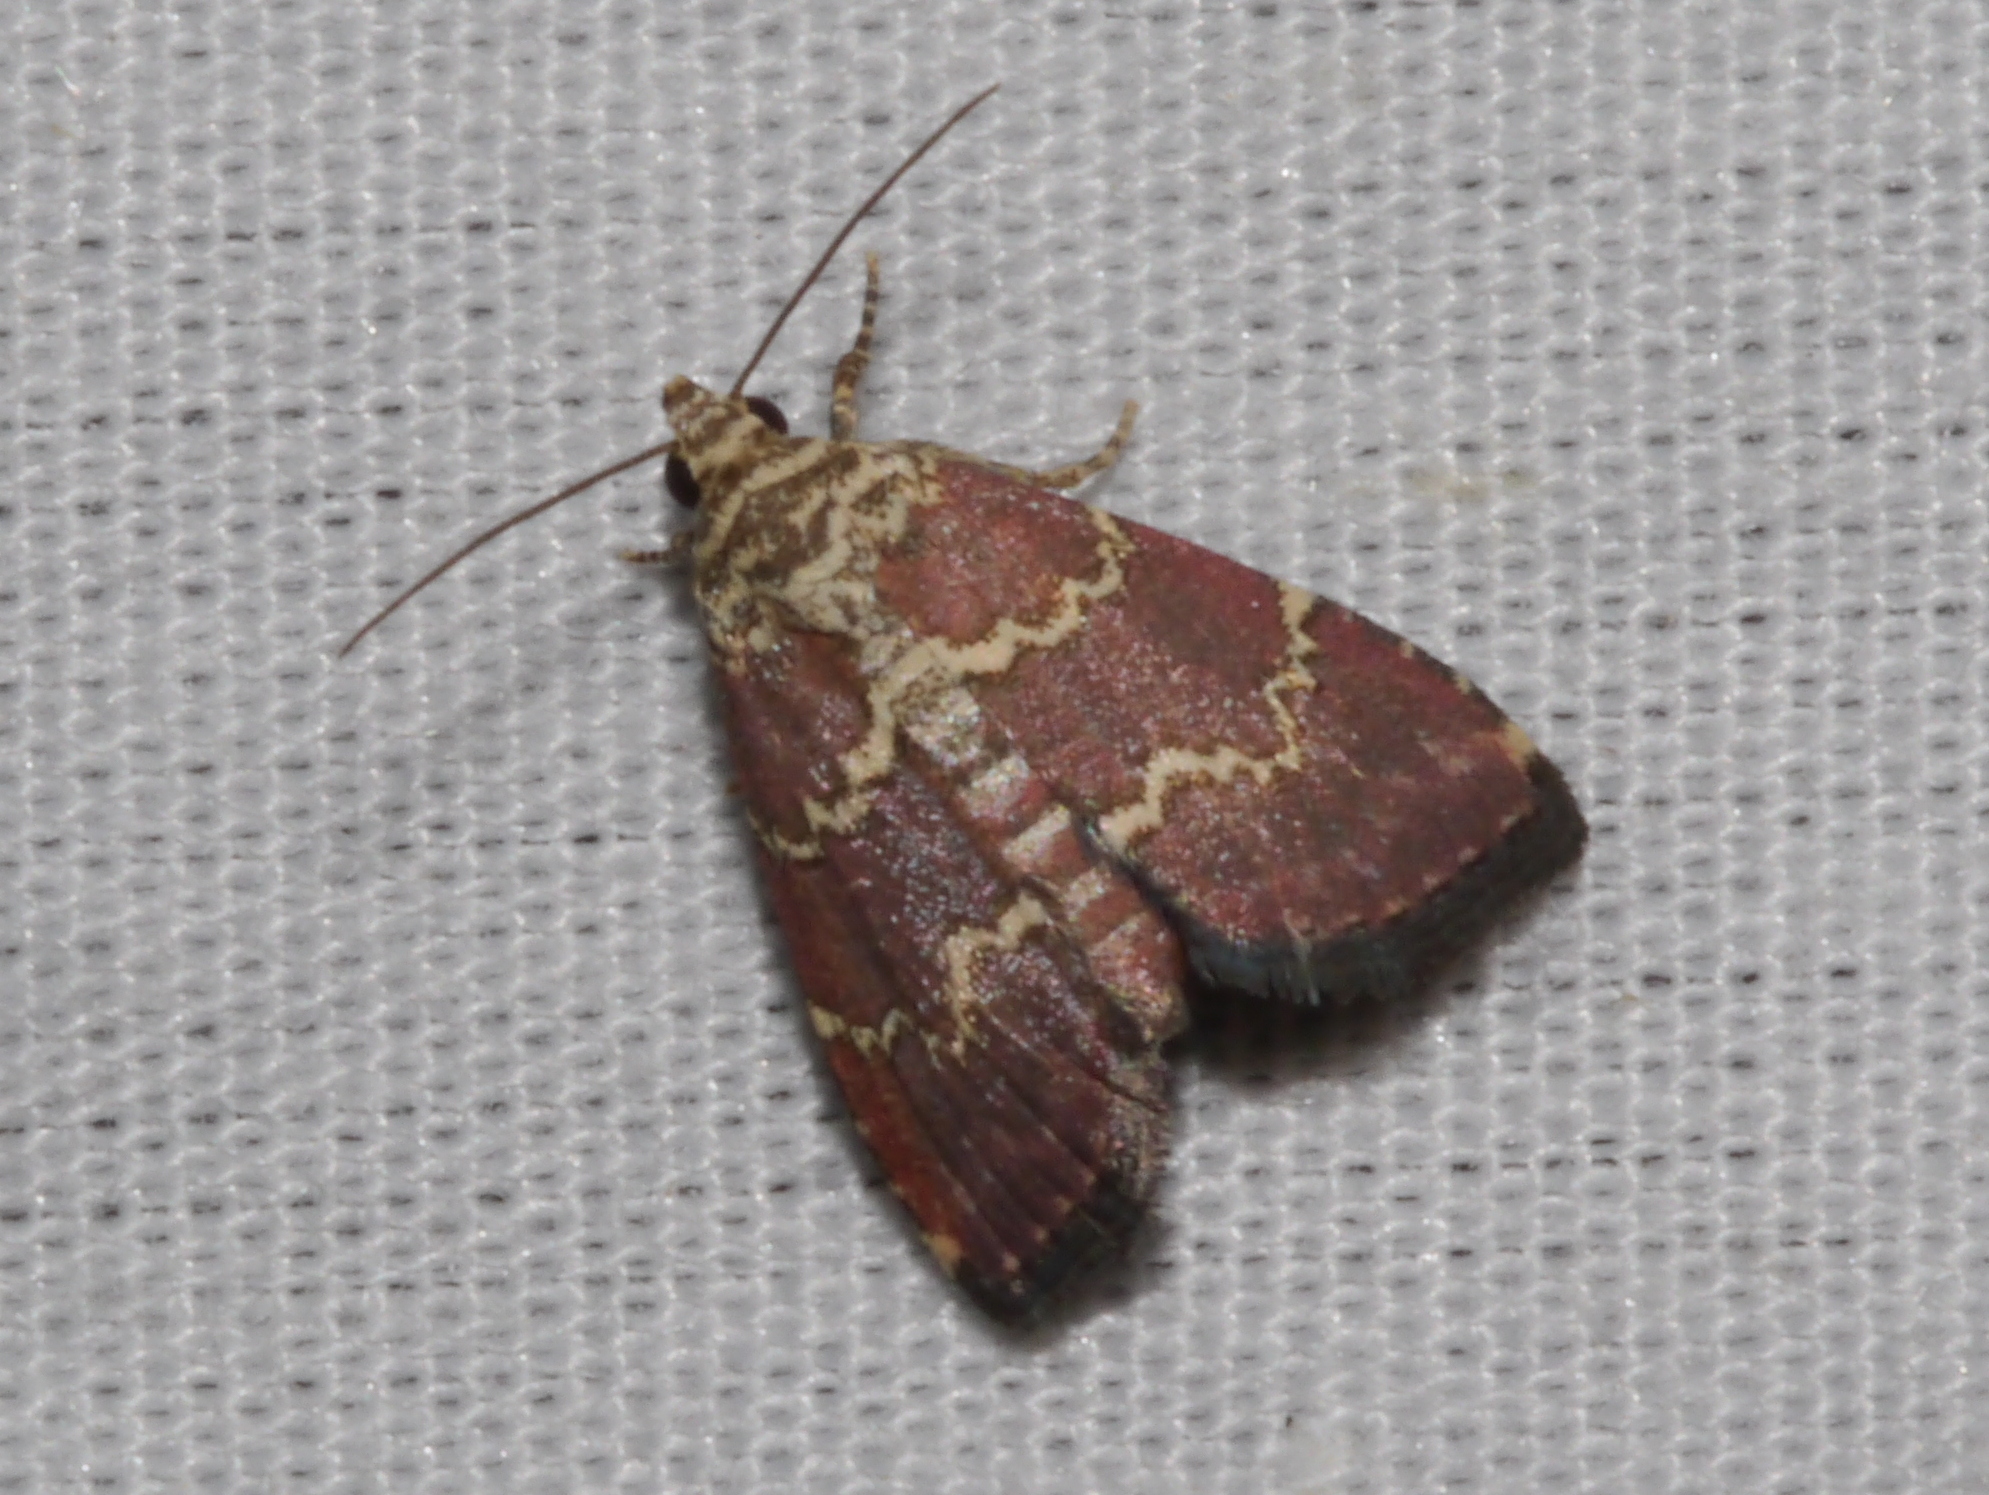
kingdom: Animalia
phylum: Arthropoda
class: Insecta
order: Lepidoptera
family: Noctuidae
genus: Phoenicophanta
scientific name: Phoenicophanta modestula
